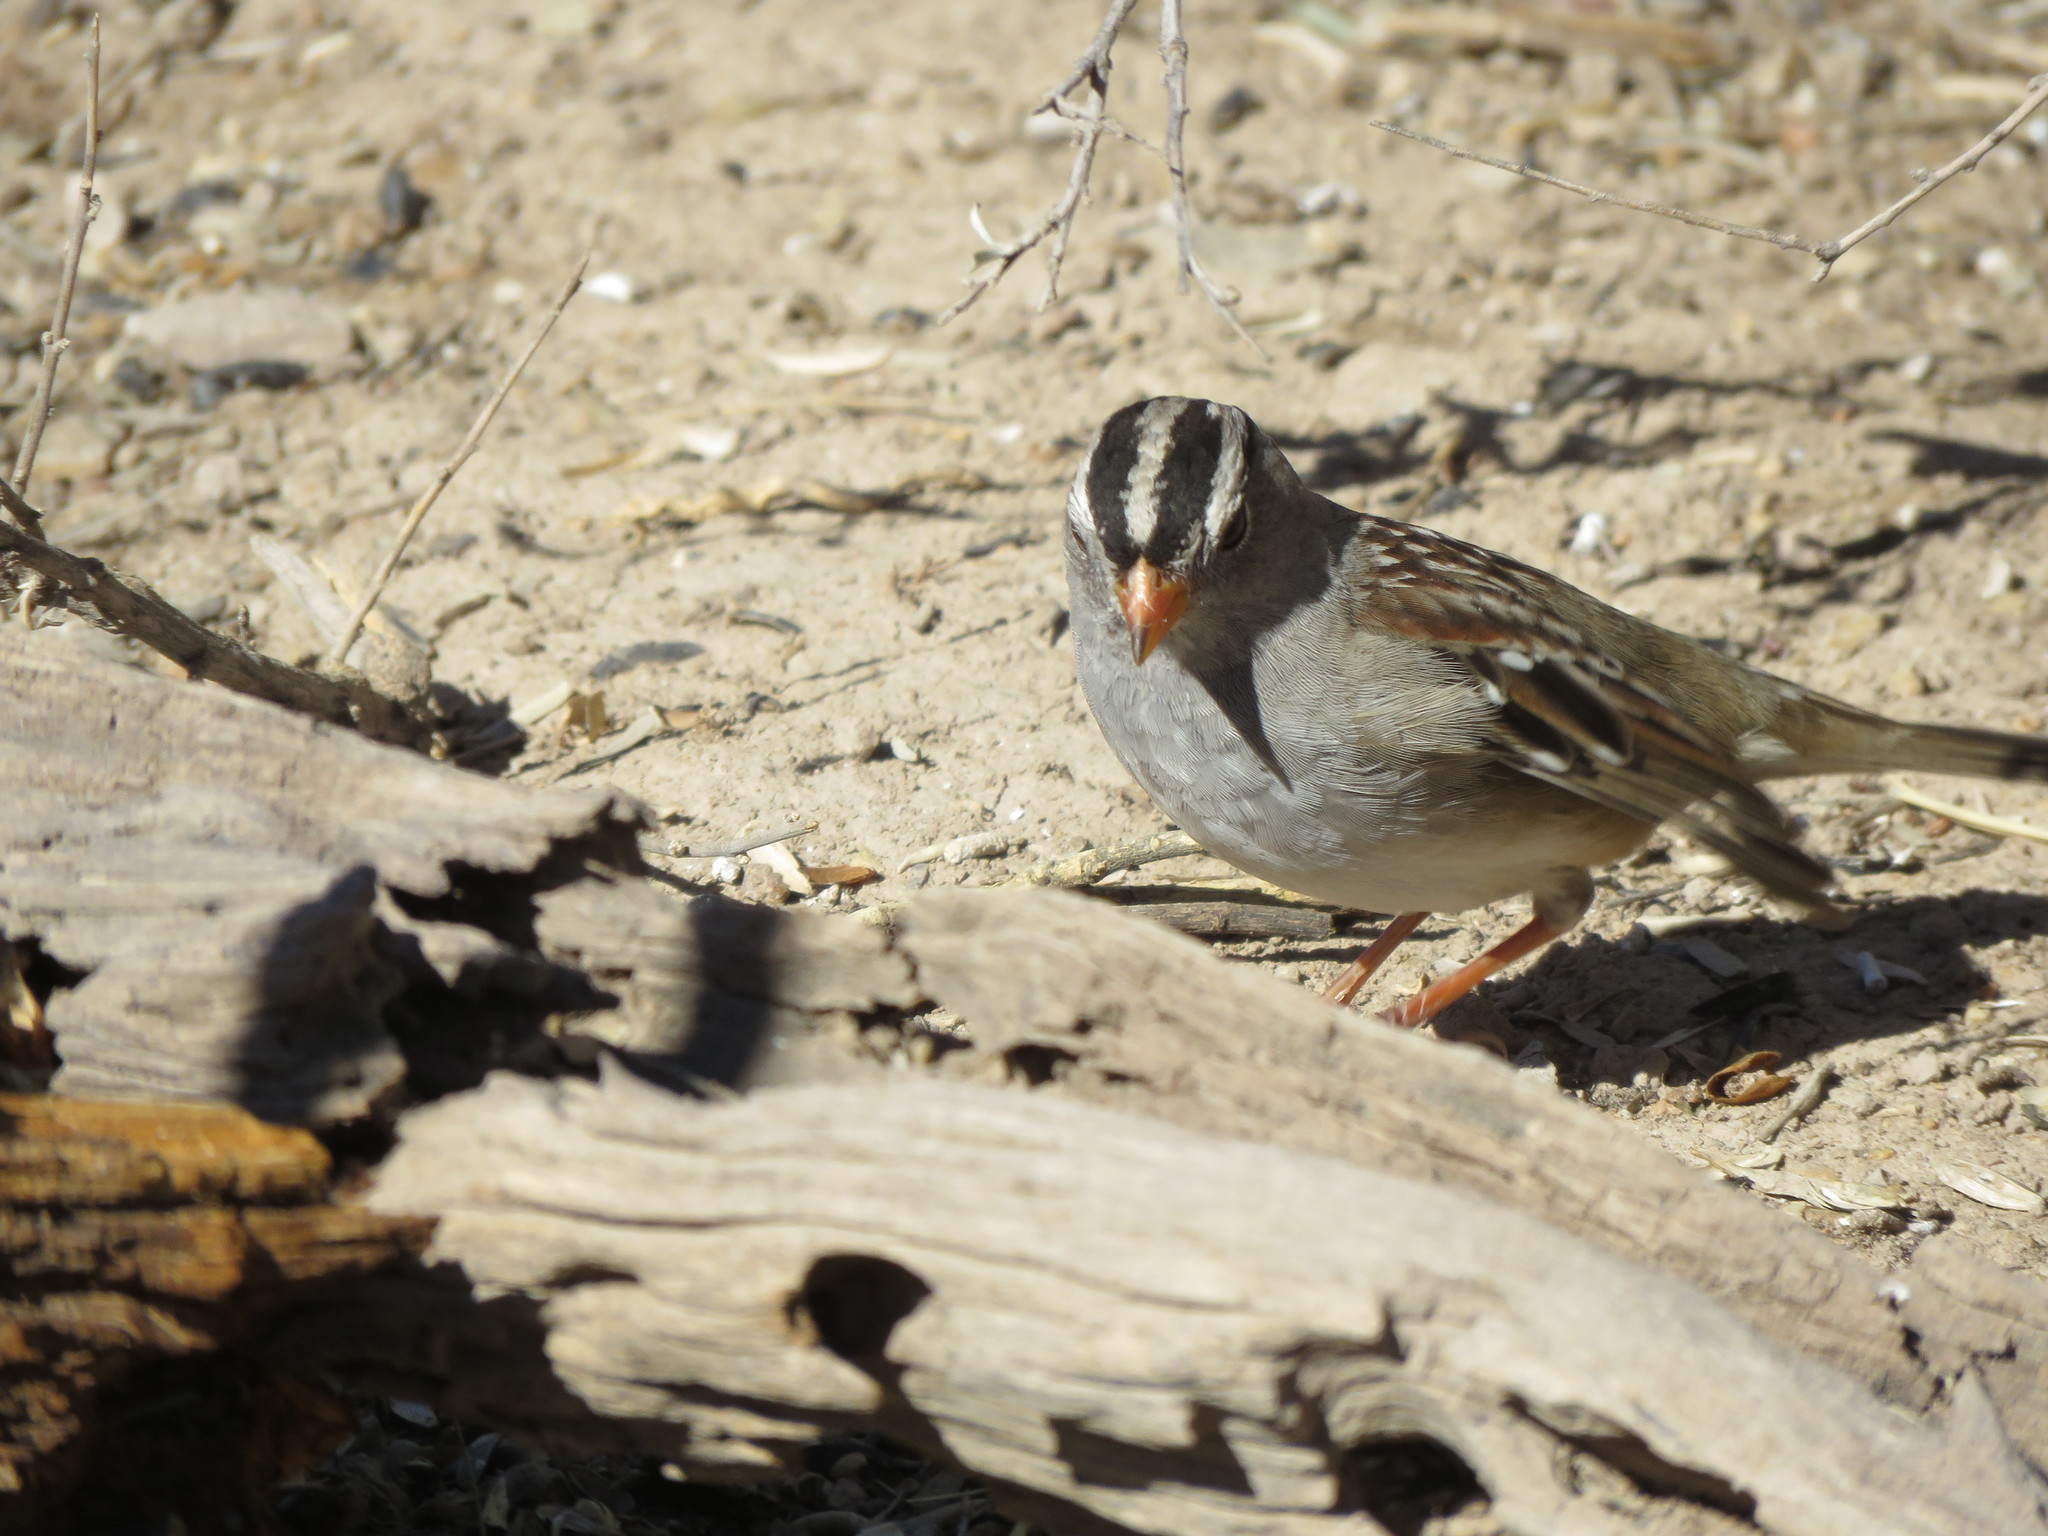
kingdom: Animalia
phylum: Chordata
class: Aves
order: Passeriformes
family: Passerellidae
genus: Zonotrichia
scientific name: Zonotrichia leucophrys
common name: White-crowned sparrow
